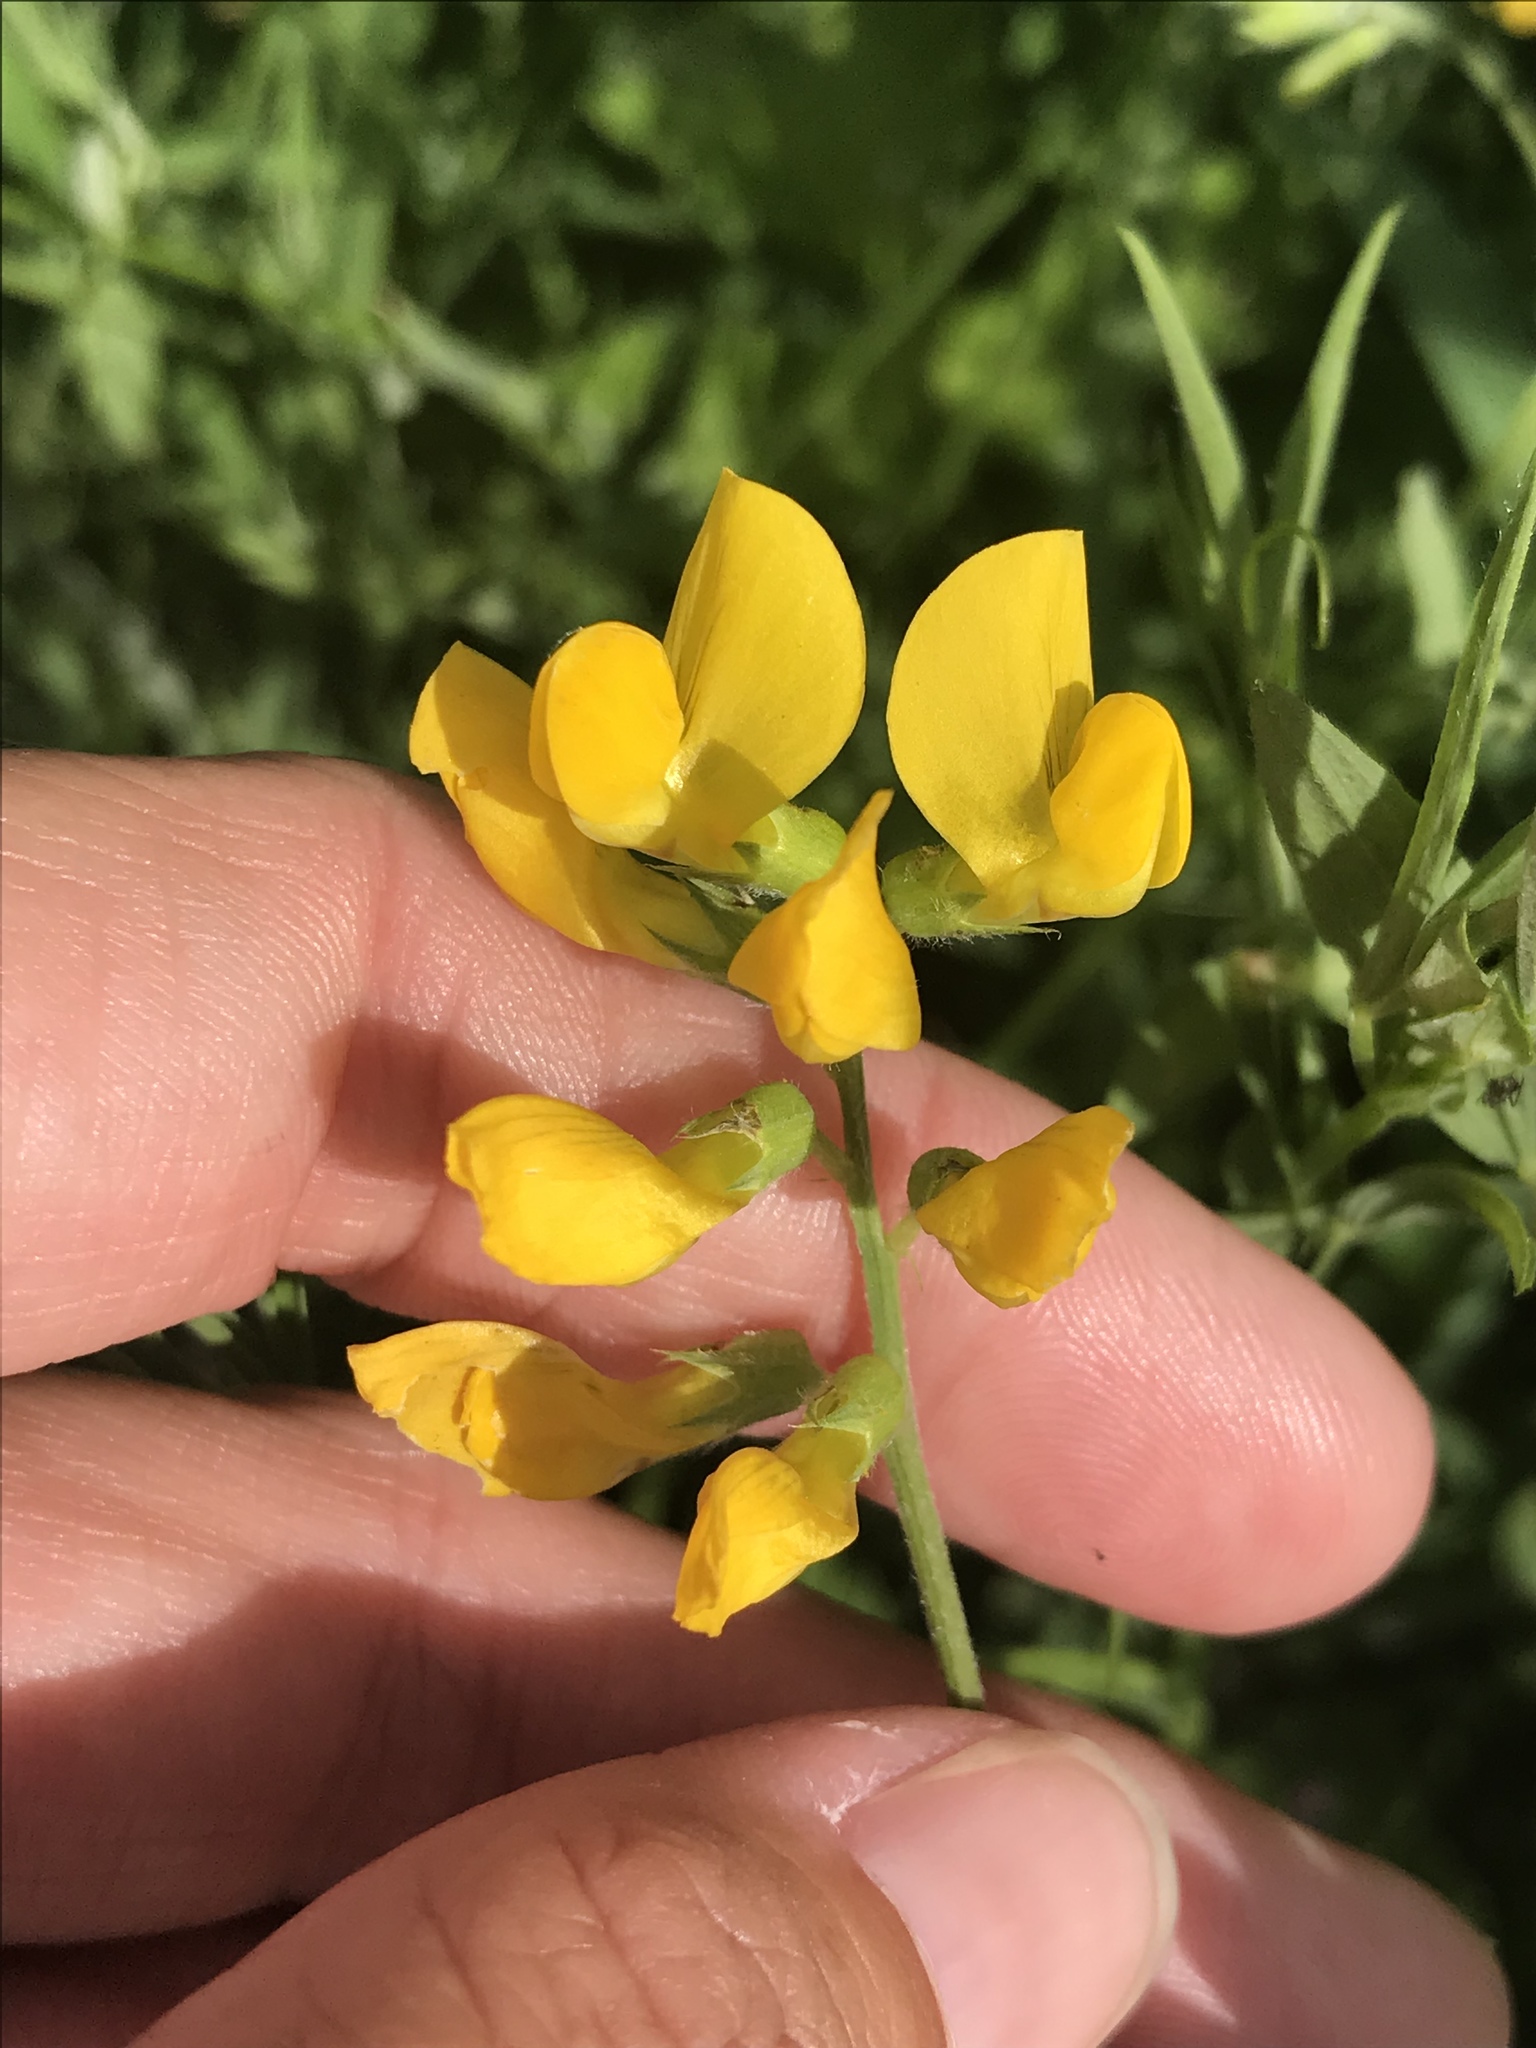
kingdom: Plantae
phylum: Tracheophyta
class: Magnoliopsida
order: Fabales
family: Fabaceae
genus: Lathyrus
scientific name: Lathyrus pratensis
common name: Meadow vetchling
